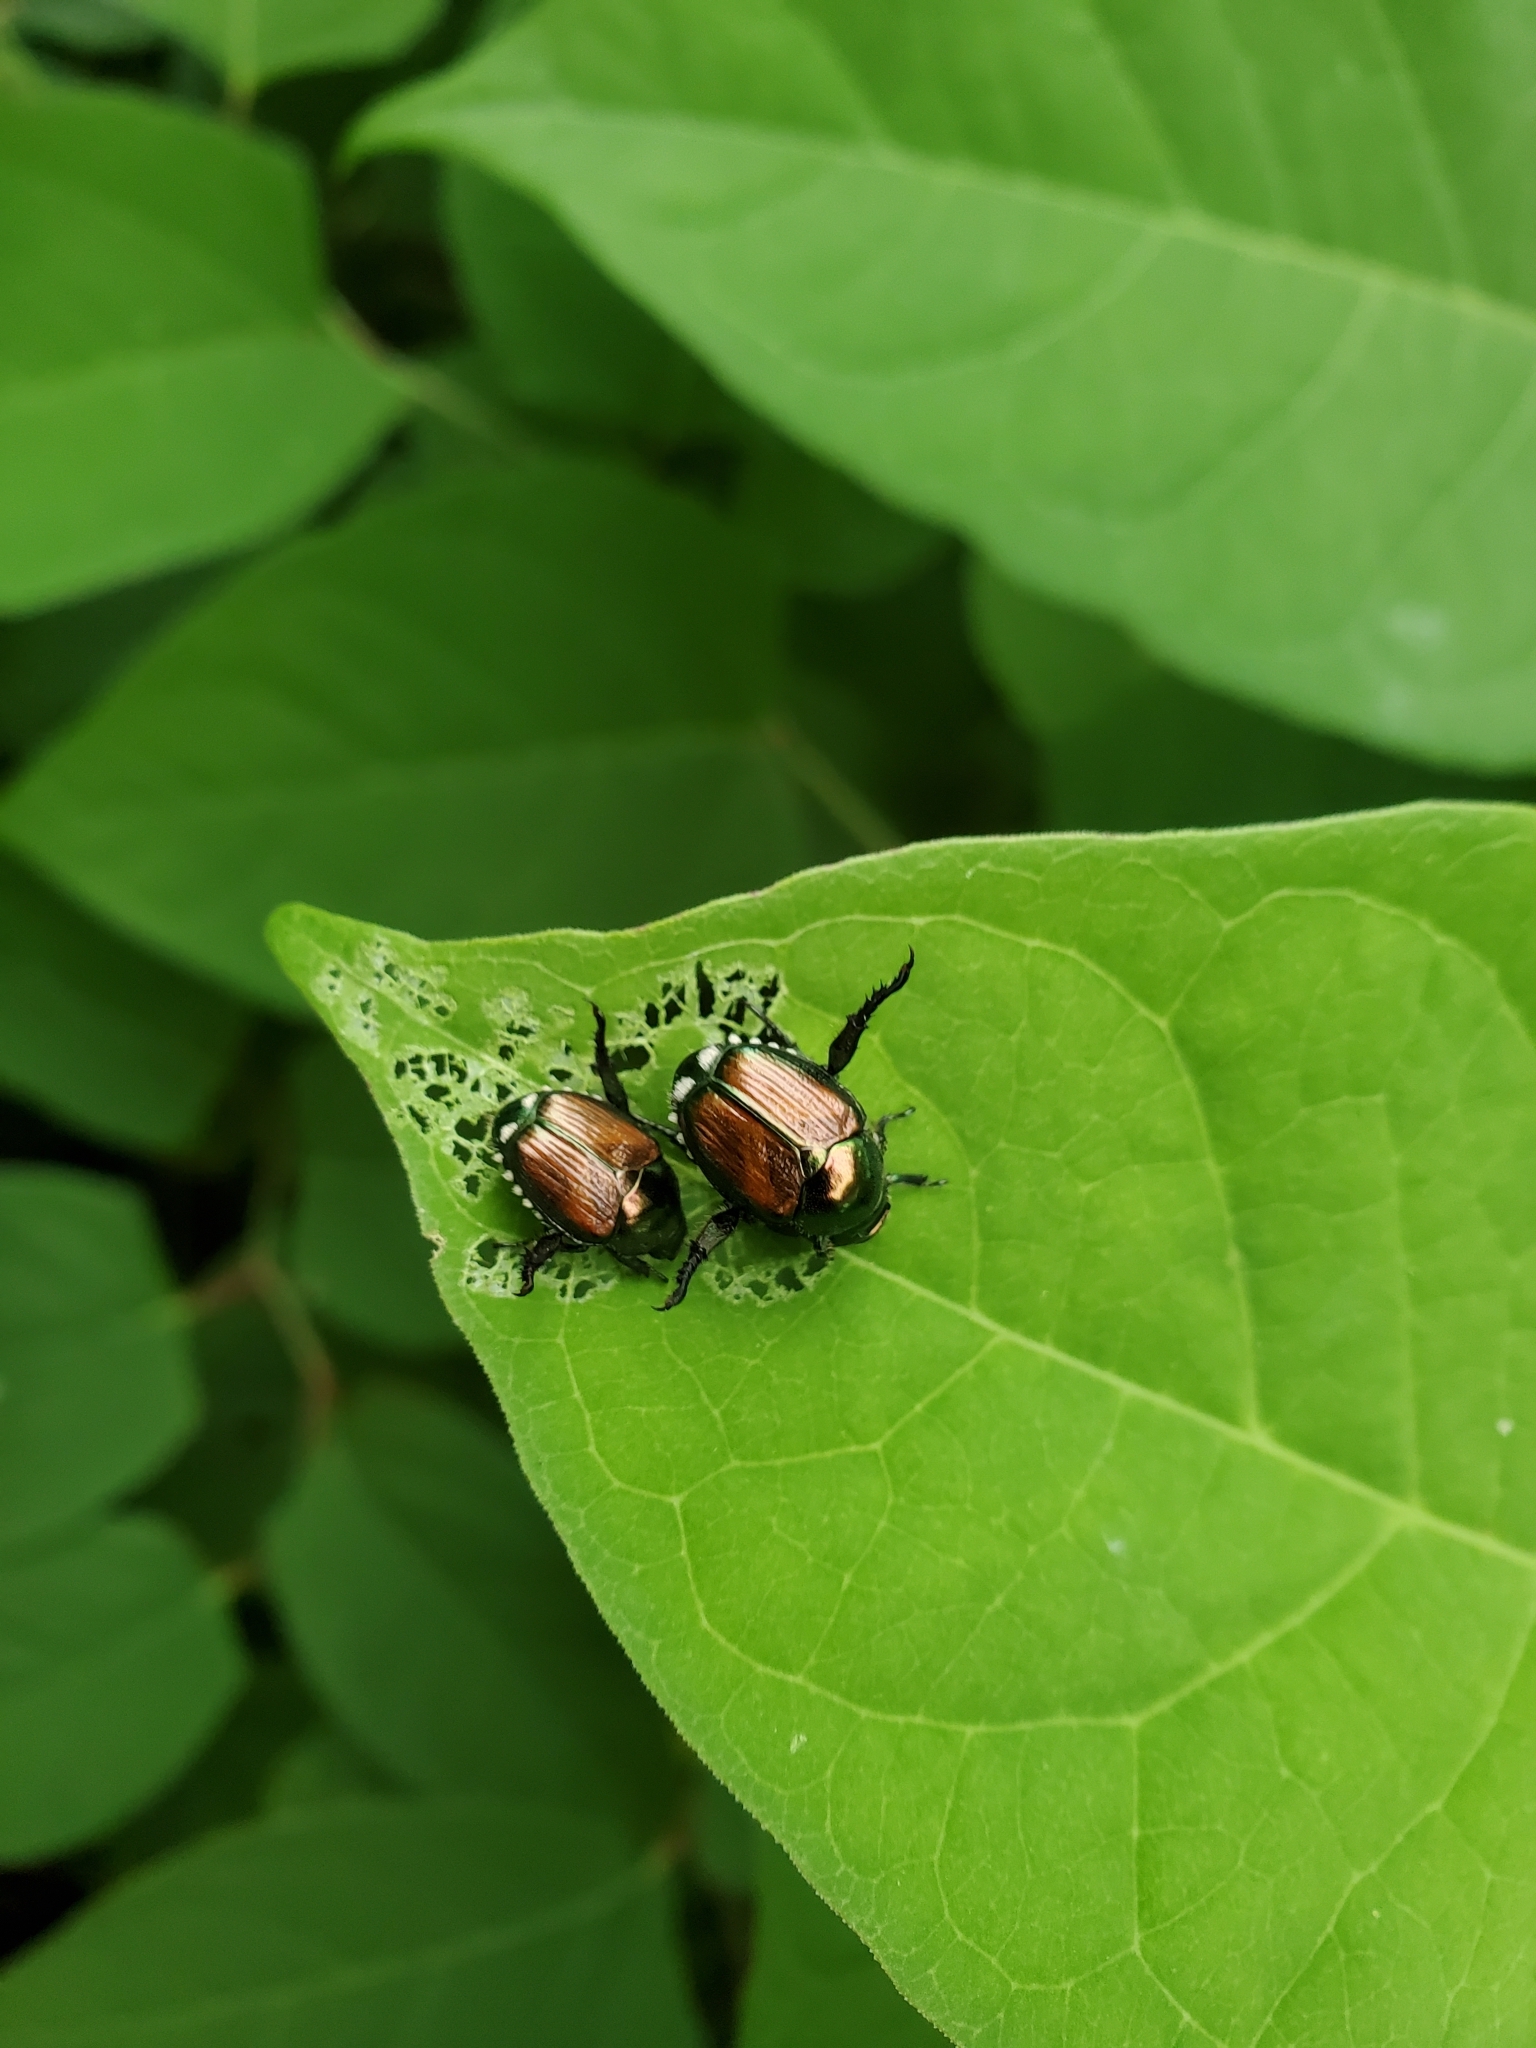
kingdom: Animalia
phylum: Arthropoda
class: Insecta
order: Coleoptera
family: Scarabaeidae
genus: Popillia
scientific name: Popillia japonica
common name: Japanese beetle
